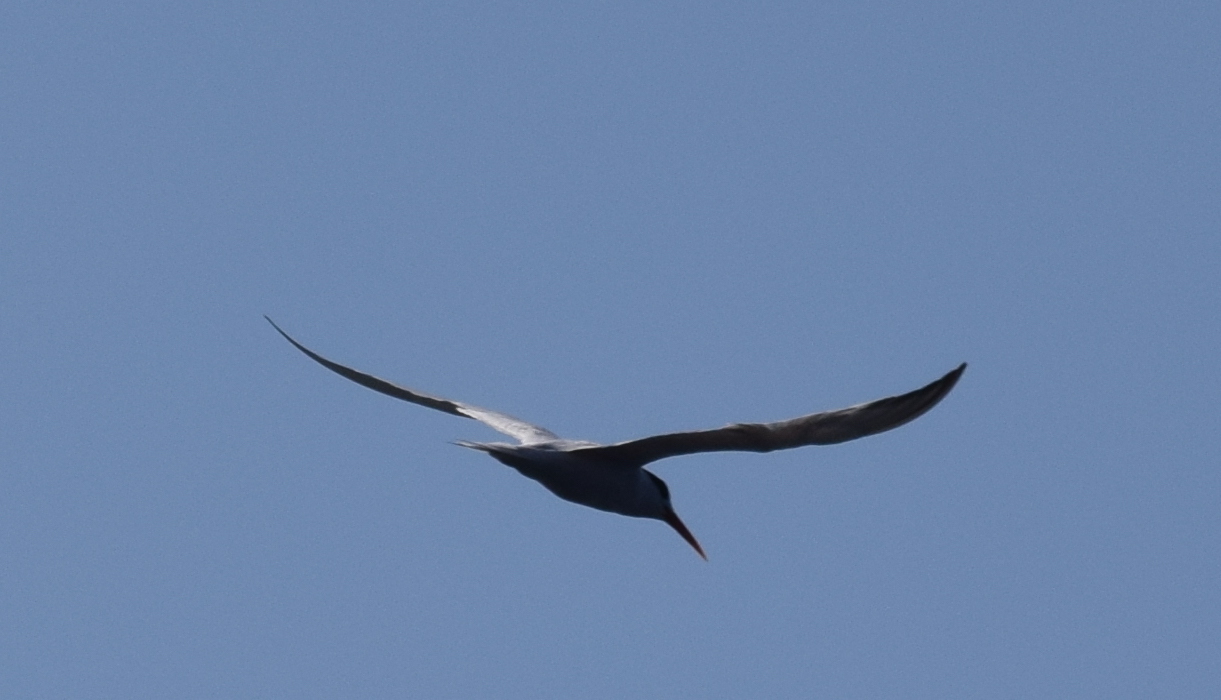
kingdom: Animalia
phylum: Chordata
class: Aves
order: Charadriiformes
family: Laridae
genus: Thalasseus
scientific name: Thalasseus elegans
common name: Elegant tern
